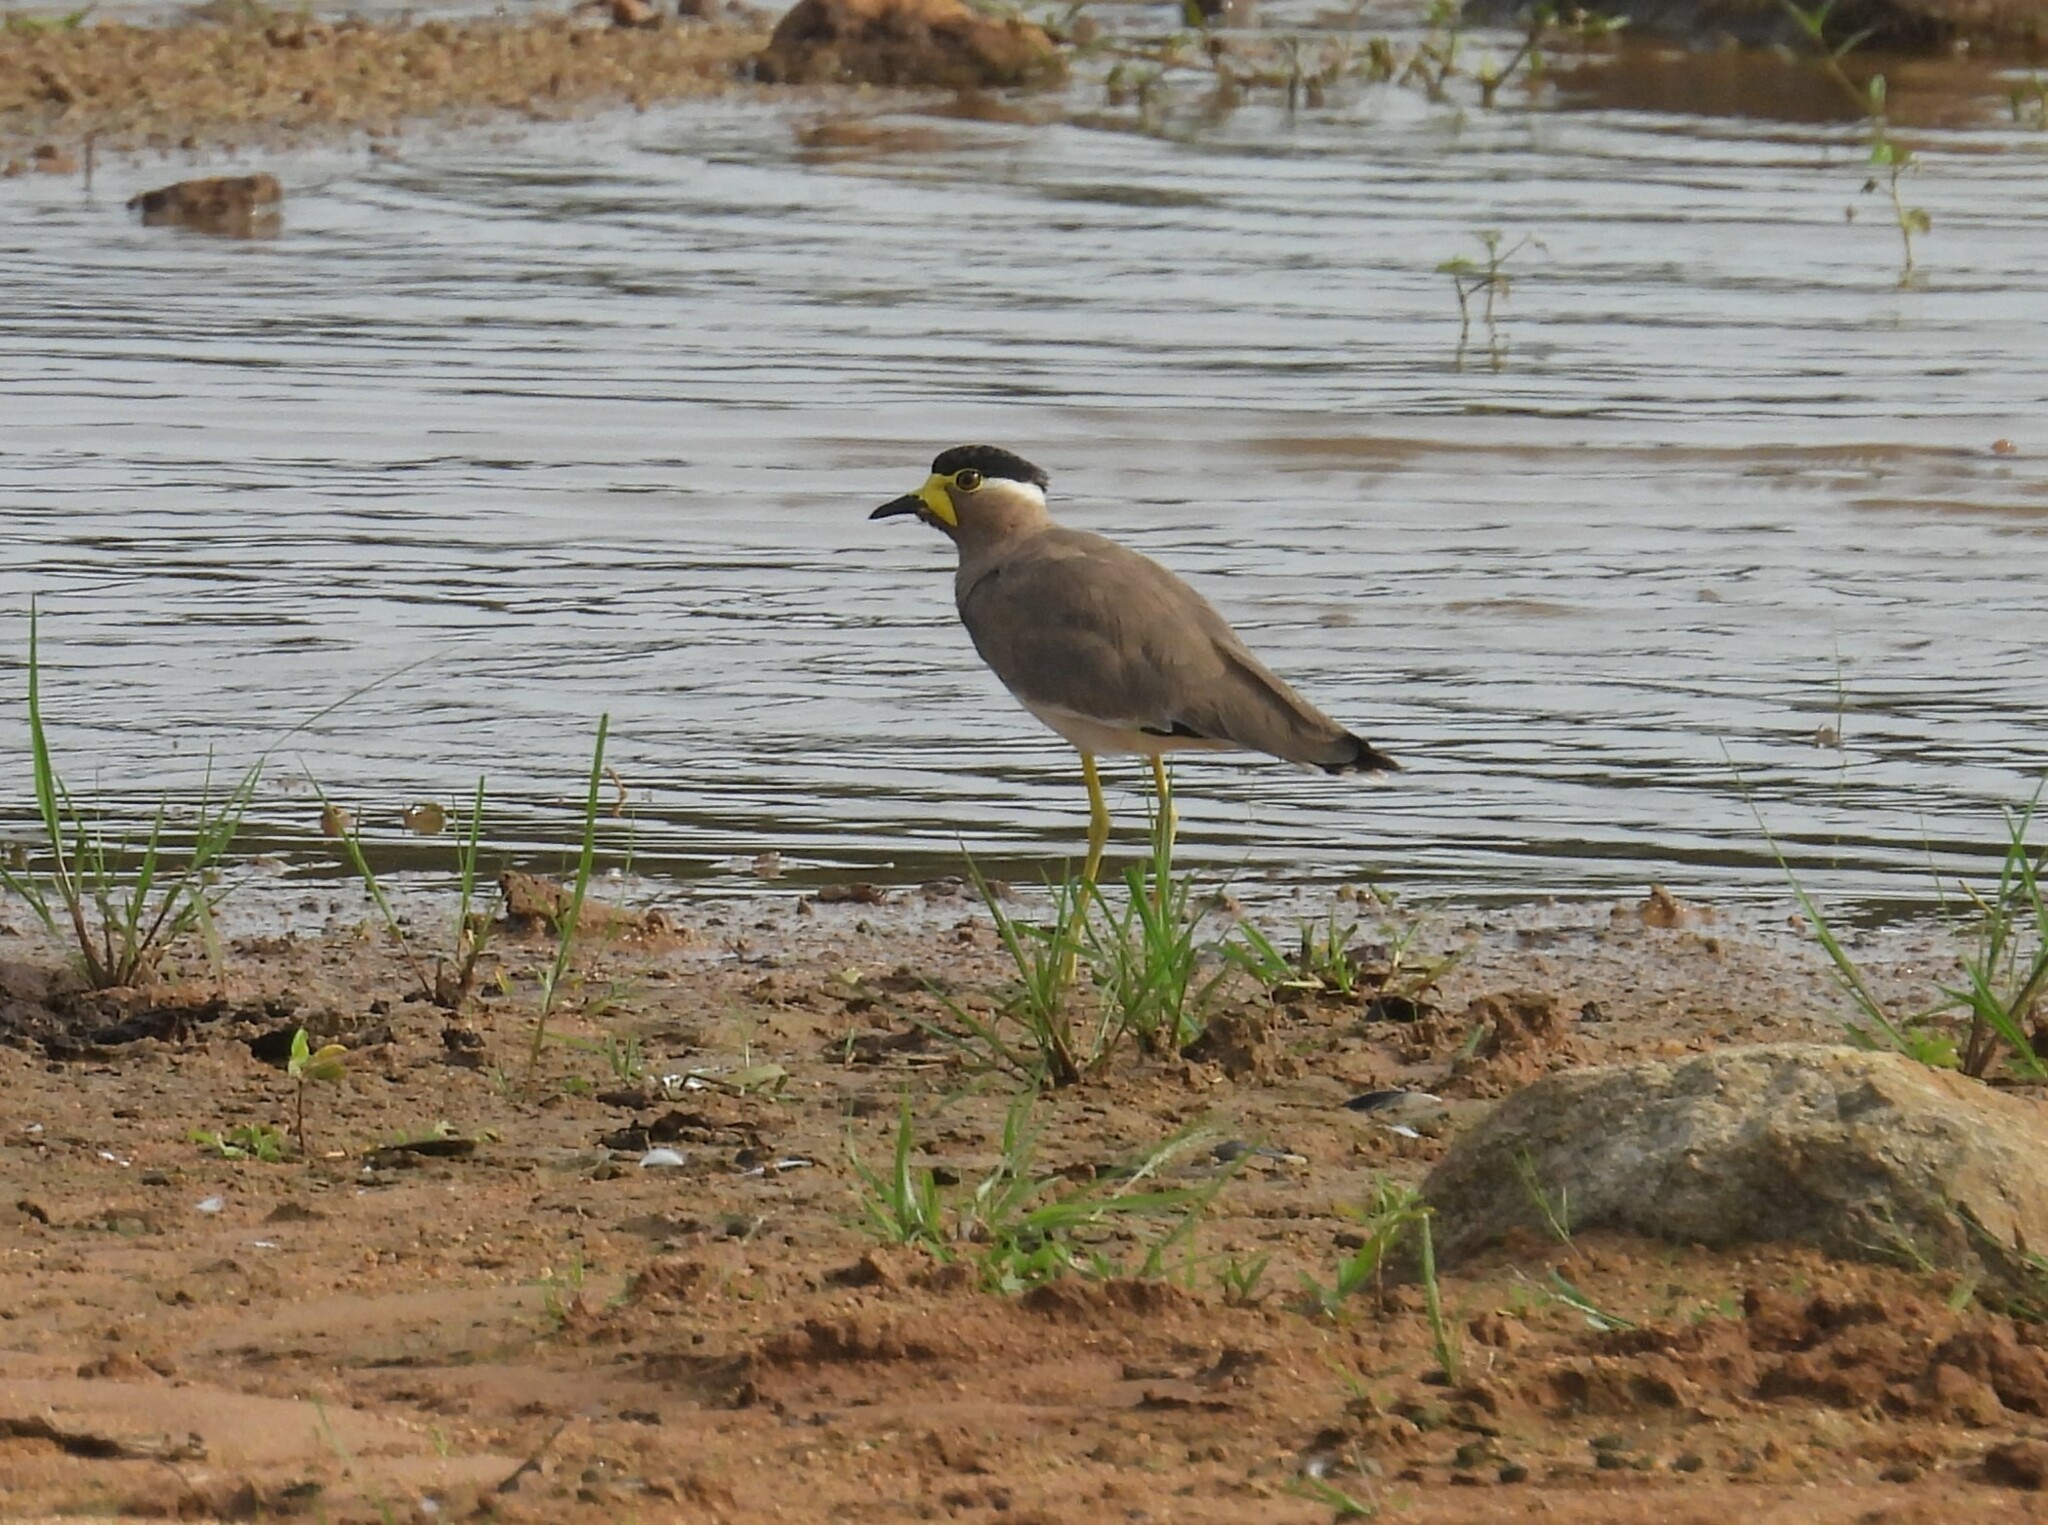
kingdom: Animalia
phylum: Chordata
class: Aves
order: Charadriiformes
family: Charadriidae
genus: Vanellus
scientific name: Vanellus malabaricus
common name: Yellow-wattled lapwing
